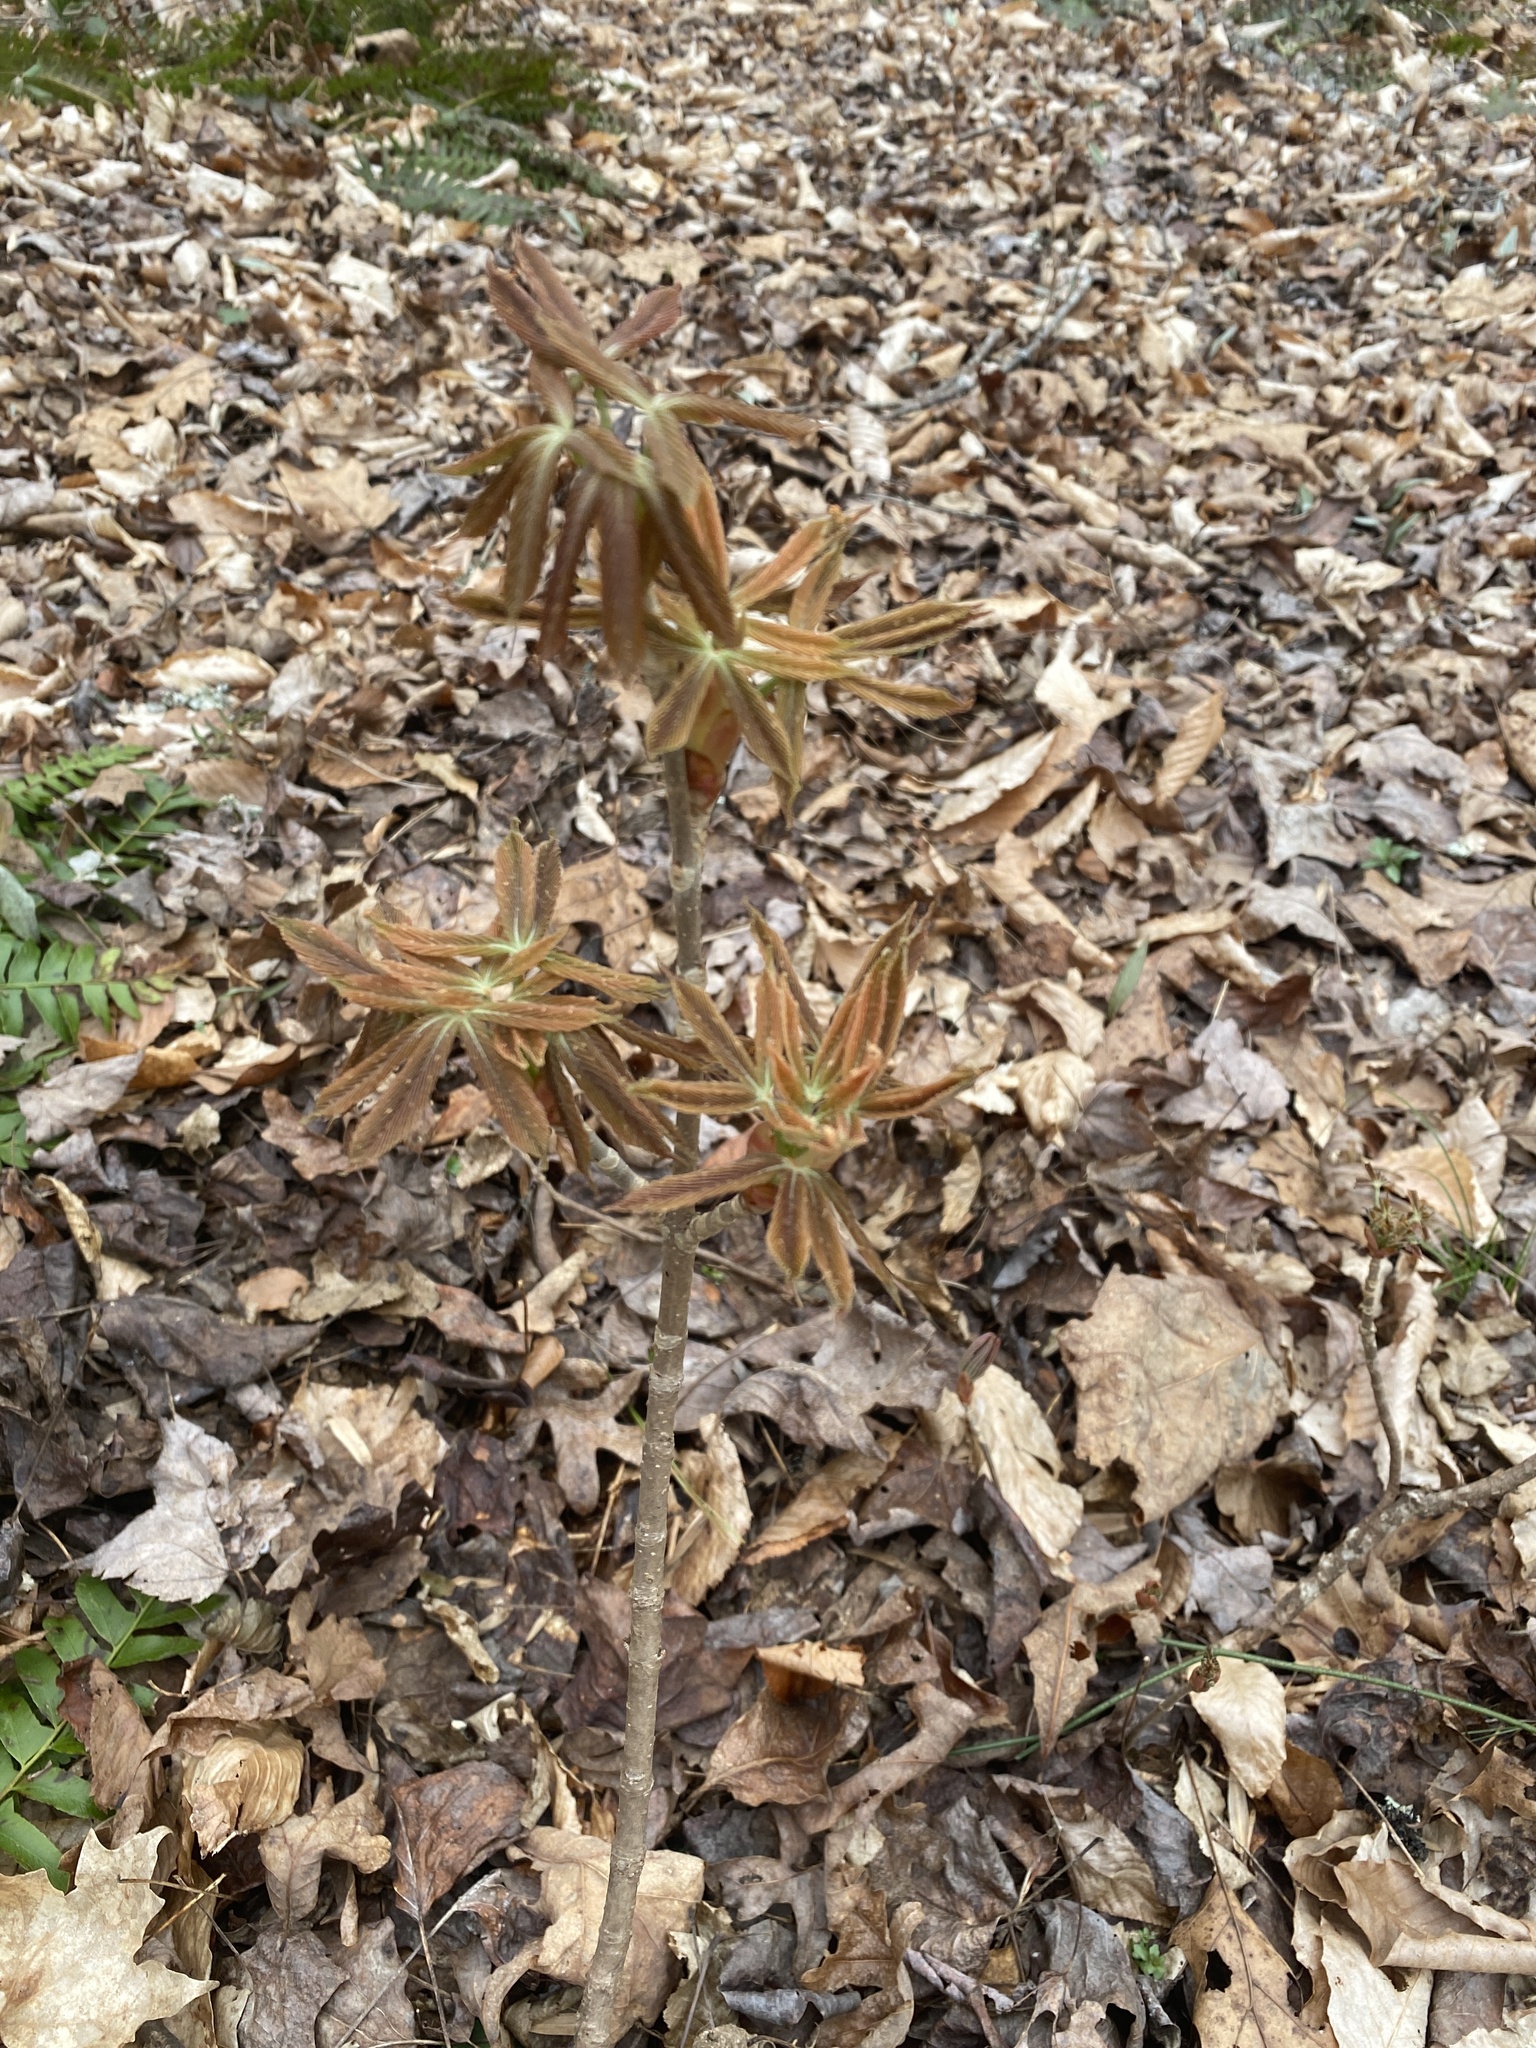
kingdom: Plantae
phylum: Tracheophyta
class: Magnoliopsida
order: Sapindales
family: Sapindaceae
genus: Aesculus
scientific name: Aesculus sylvatica
